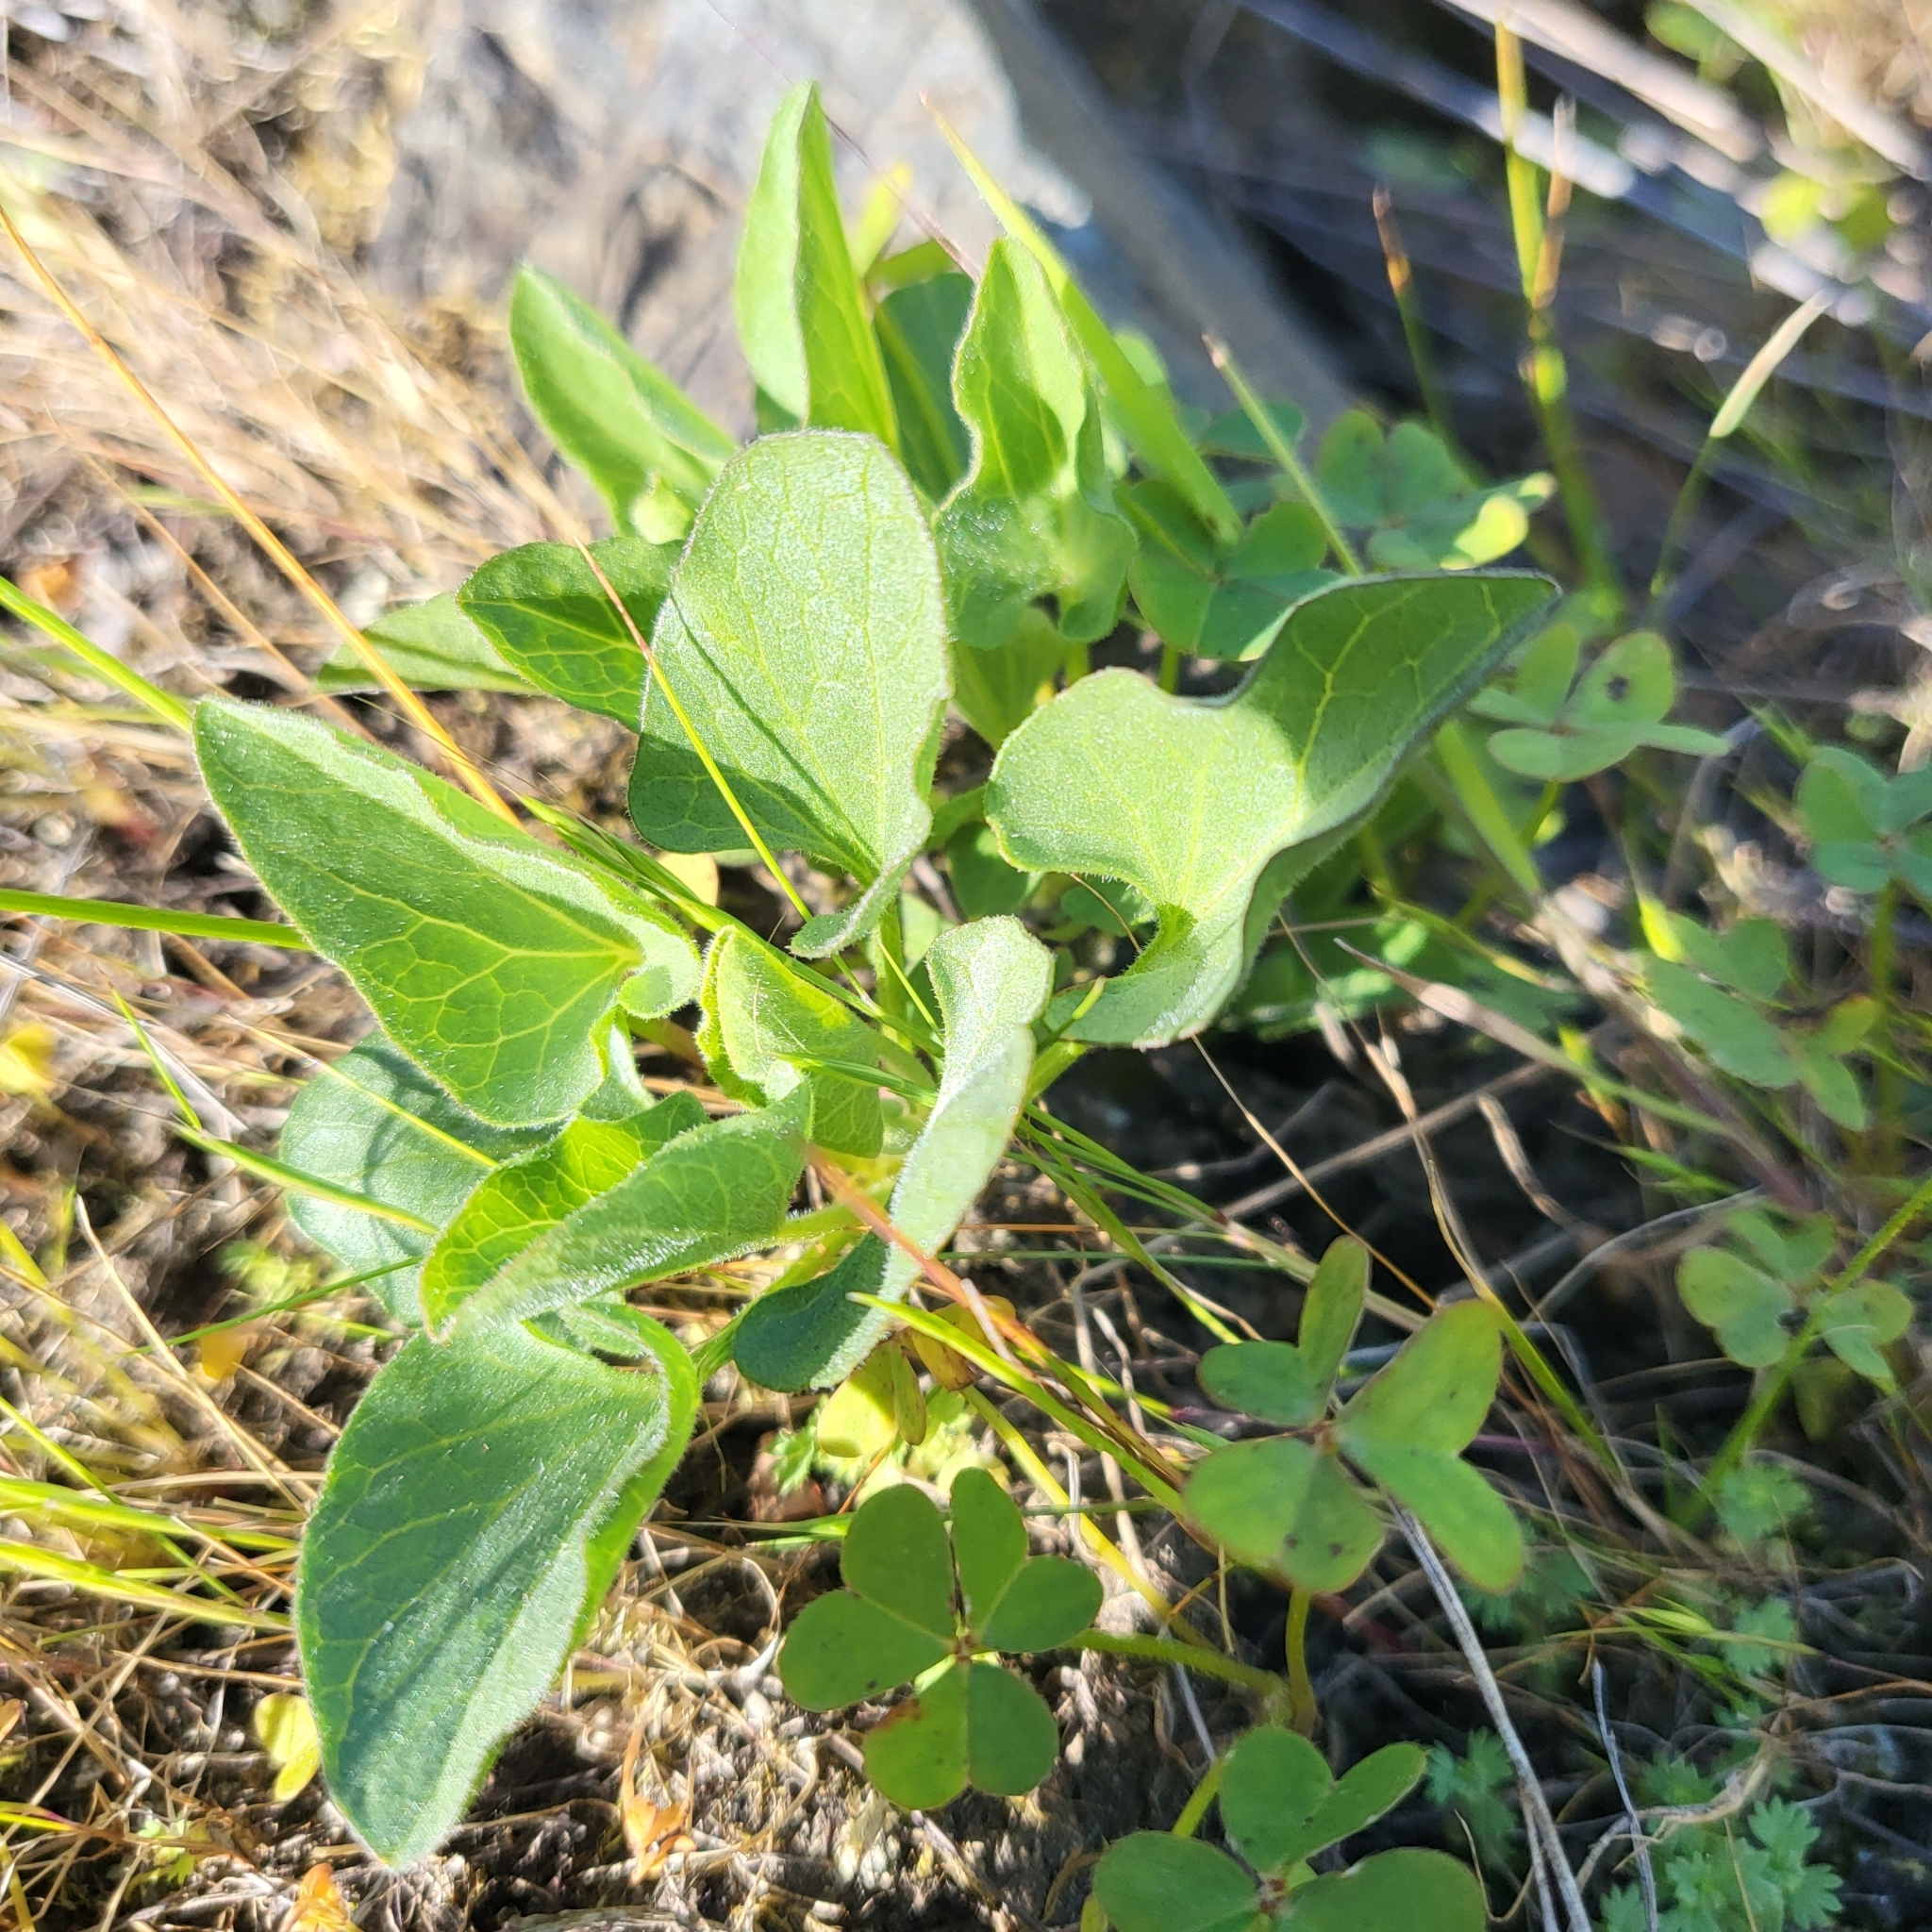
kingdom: Plantae
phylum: Tracheophyta
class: Magnoliopsida
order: Solanales
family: Convolvulaceae
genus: Calystegia
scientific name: Calystegia subacaulis
